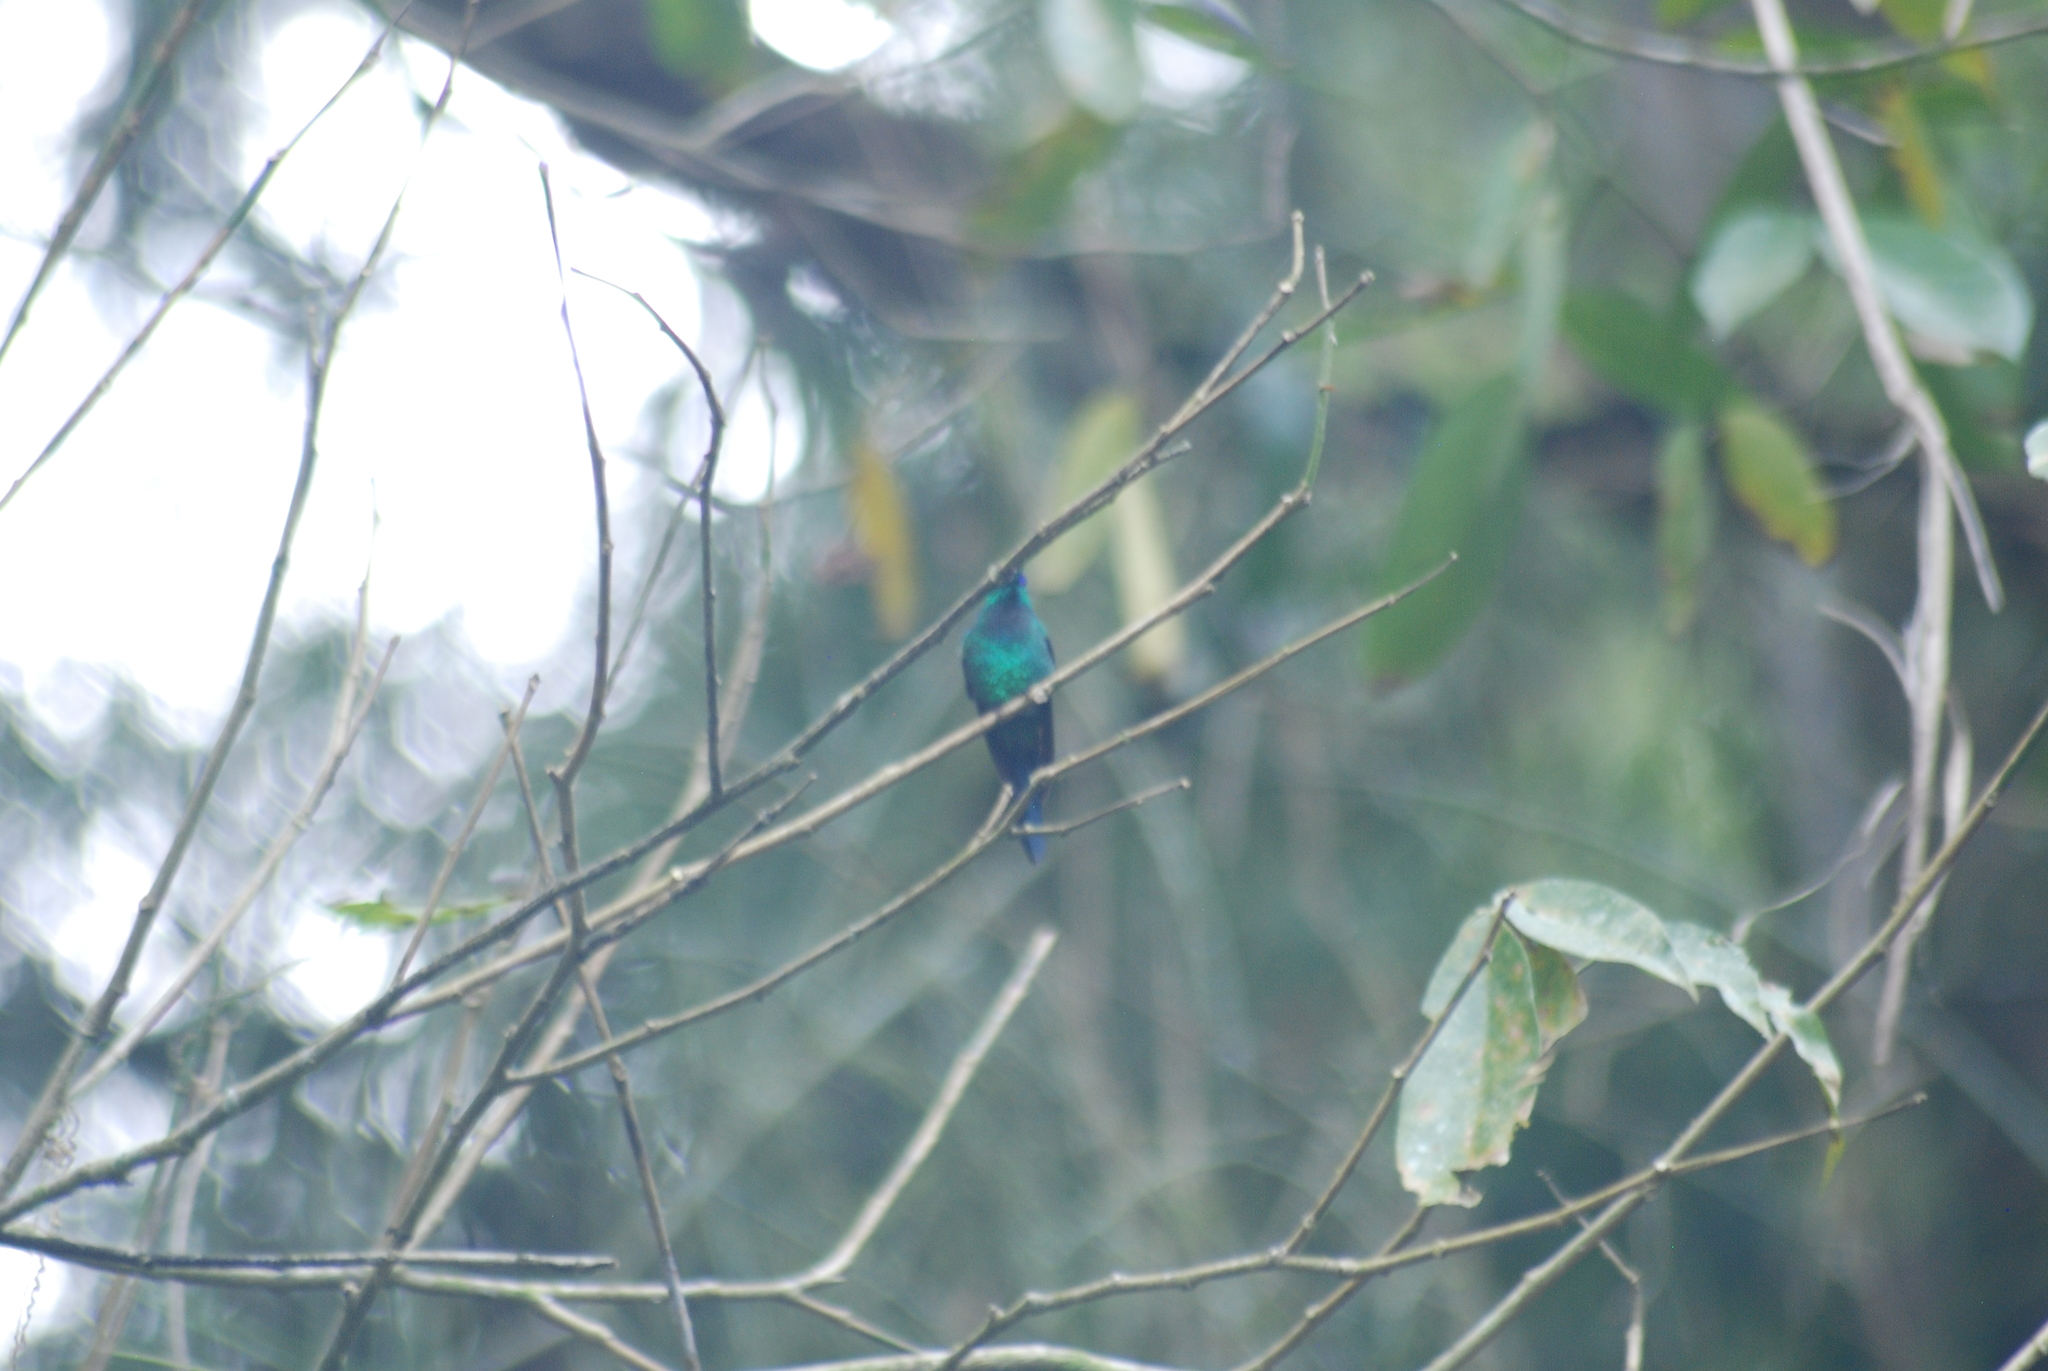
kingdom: Animalia
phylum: Chordata
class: Aves
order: Apodiformes
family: Trochilidae
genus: Thalurania
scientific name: Thalurania glaucopis
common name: Violet-capped woodnymph
